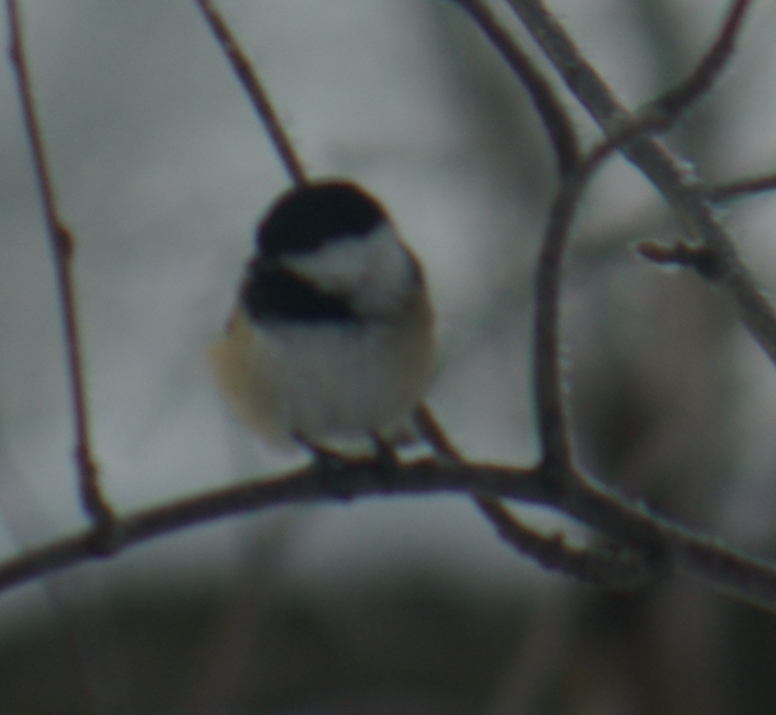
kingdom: Animalia
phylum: Chordata
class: Aves
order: Passeriformes
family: Paridae
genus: Poecile
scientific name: Poecile atricapillus
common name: Black-capped chickadee
